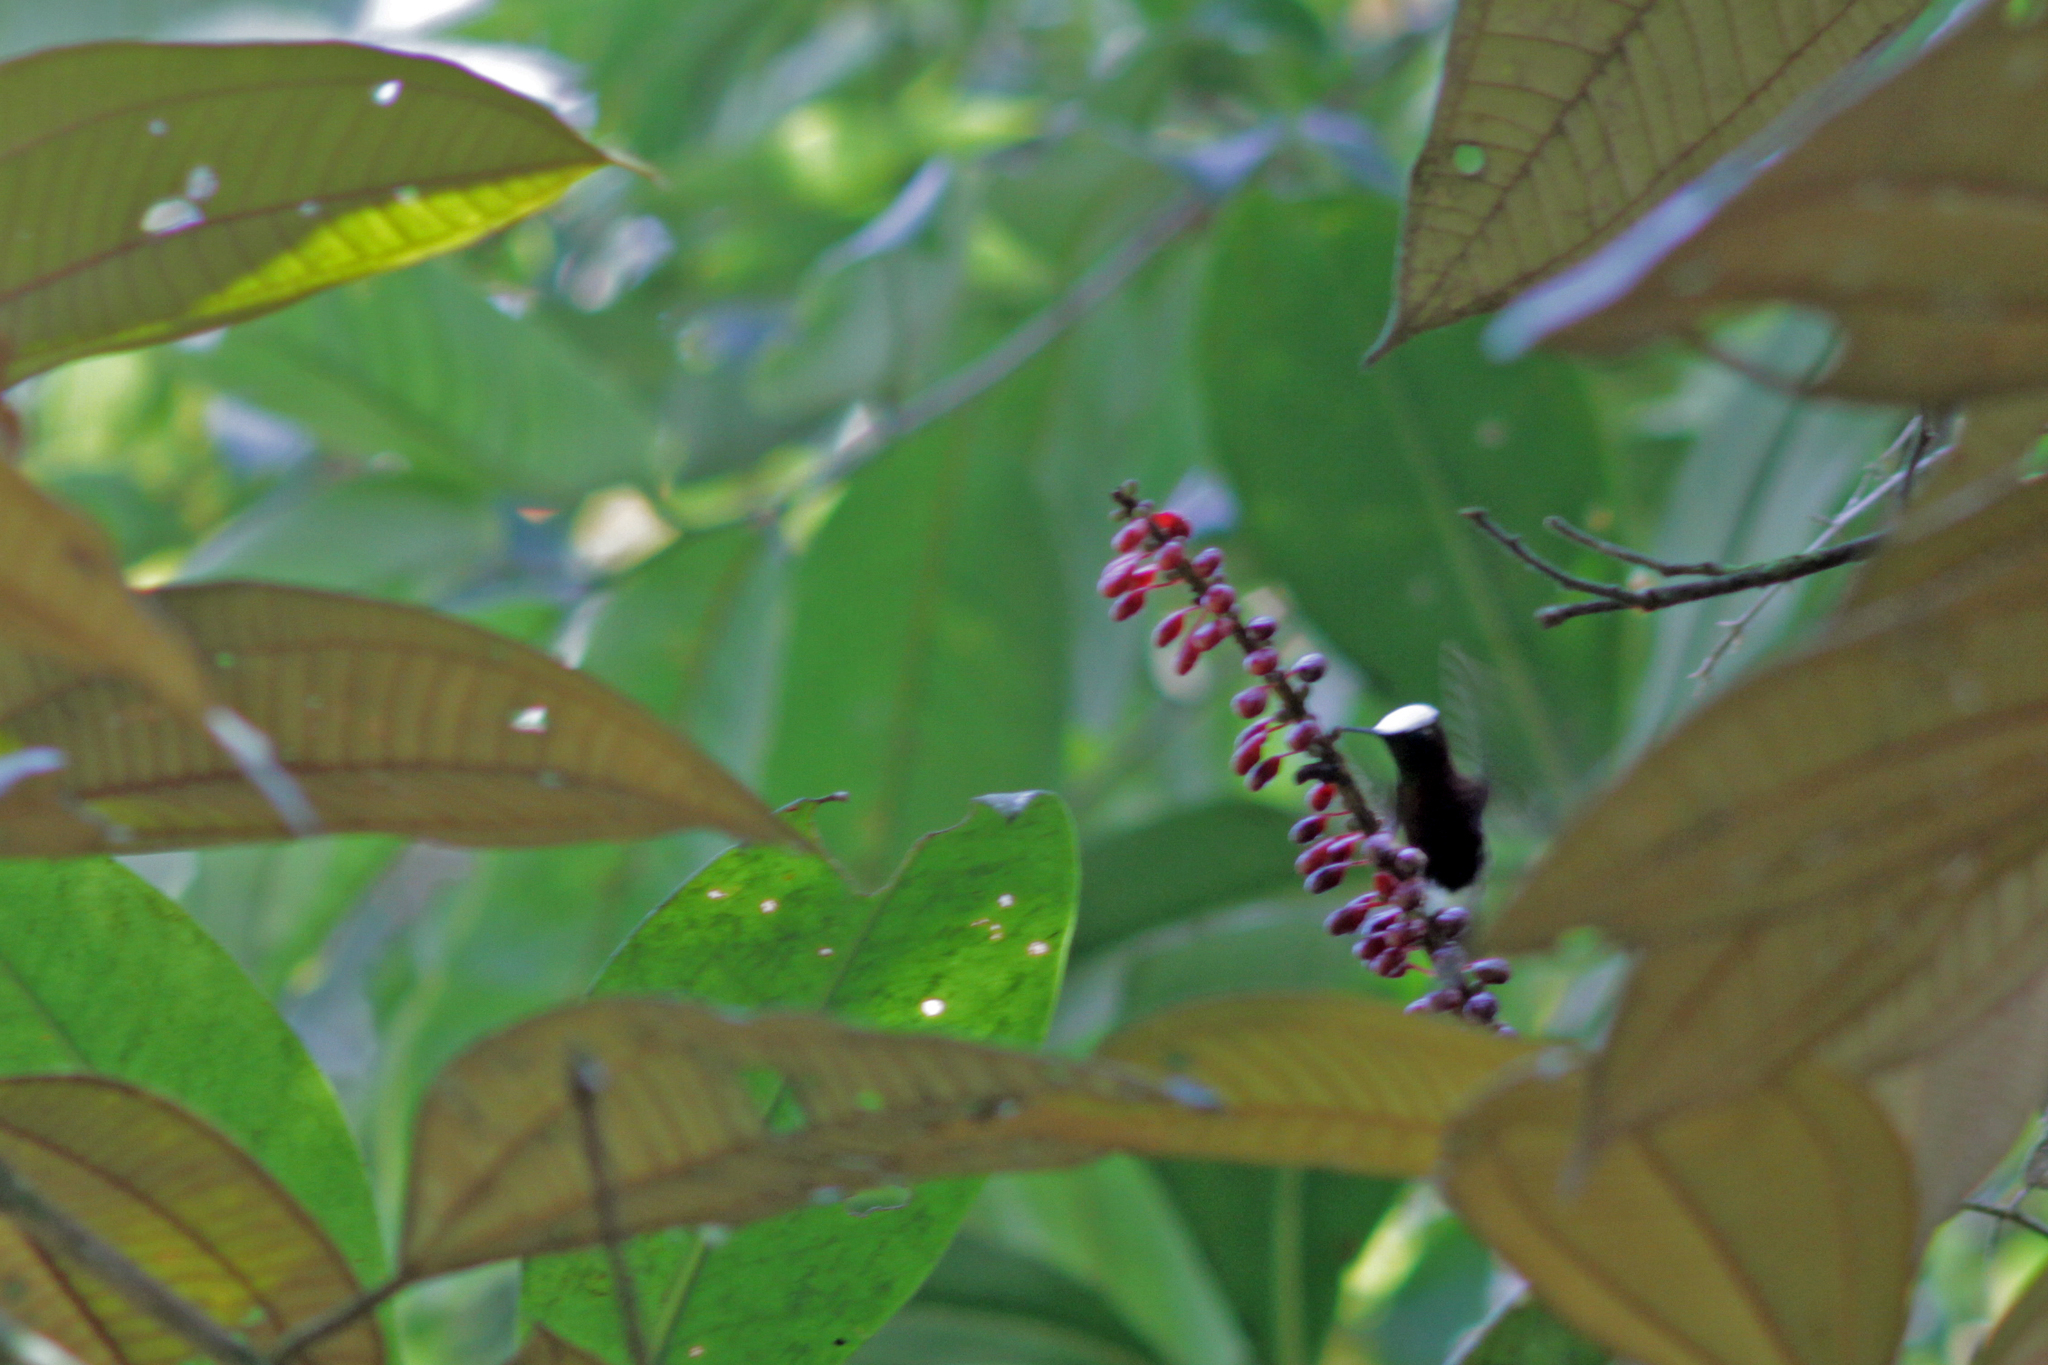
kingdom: Animalia
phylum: Chordata
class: Aves
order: Apodiformes
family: Trochilidae
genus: Microchera
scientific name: Microchera albocoronata
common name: Snowcap
